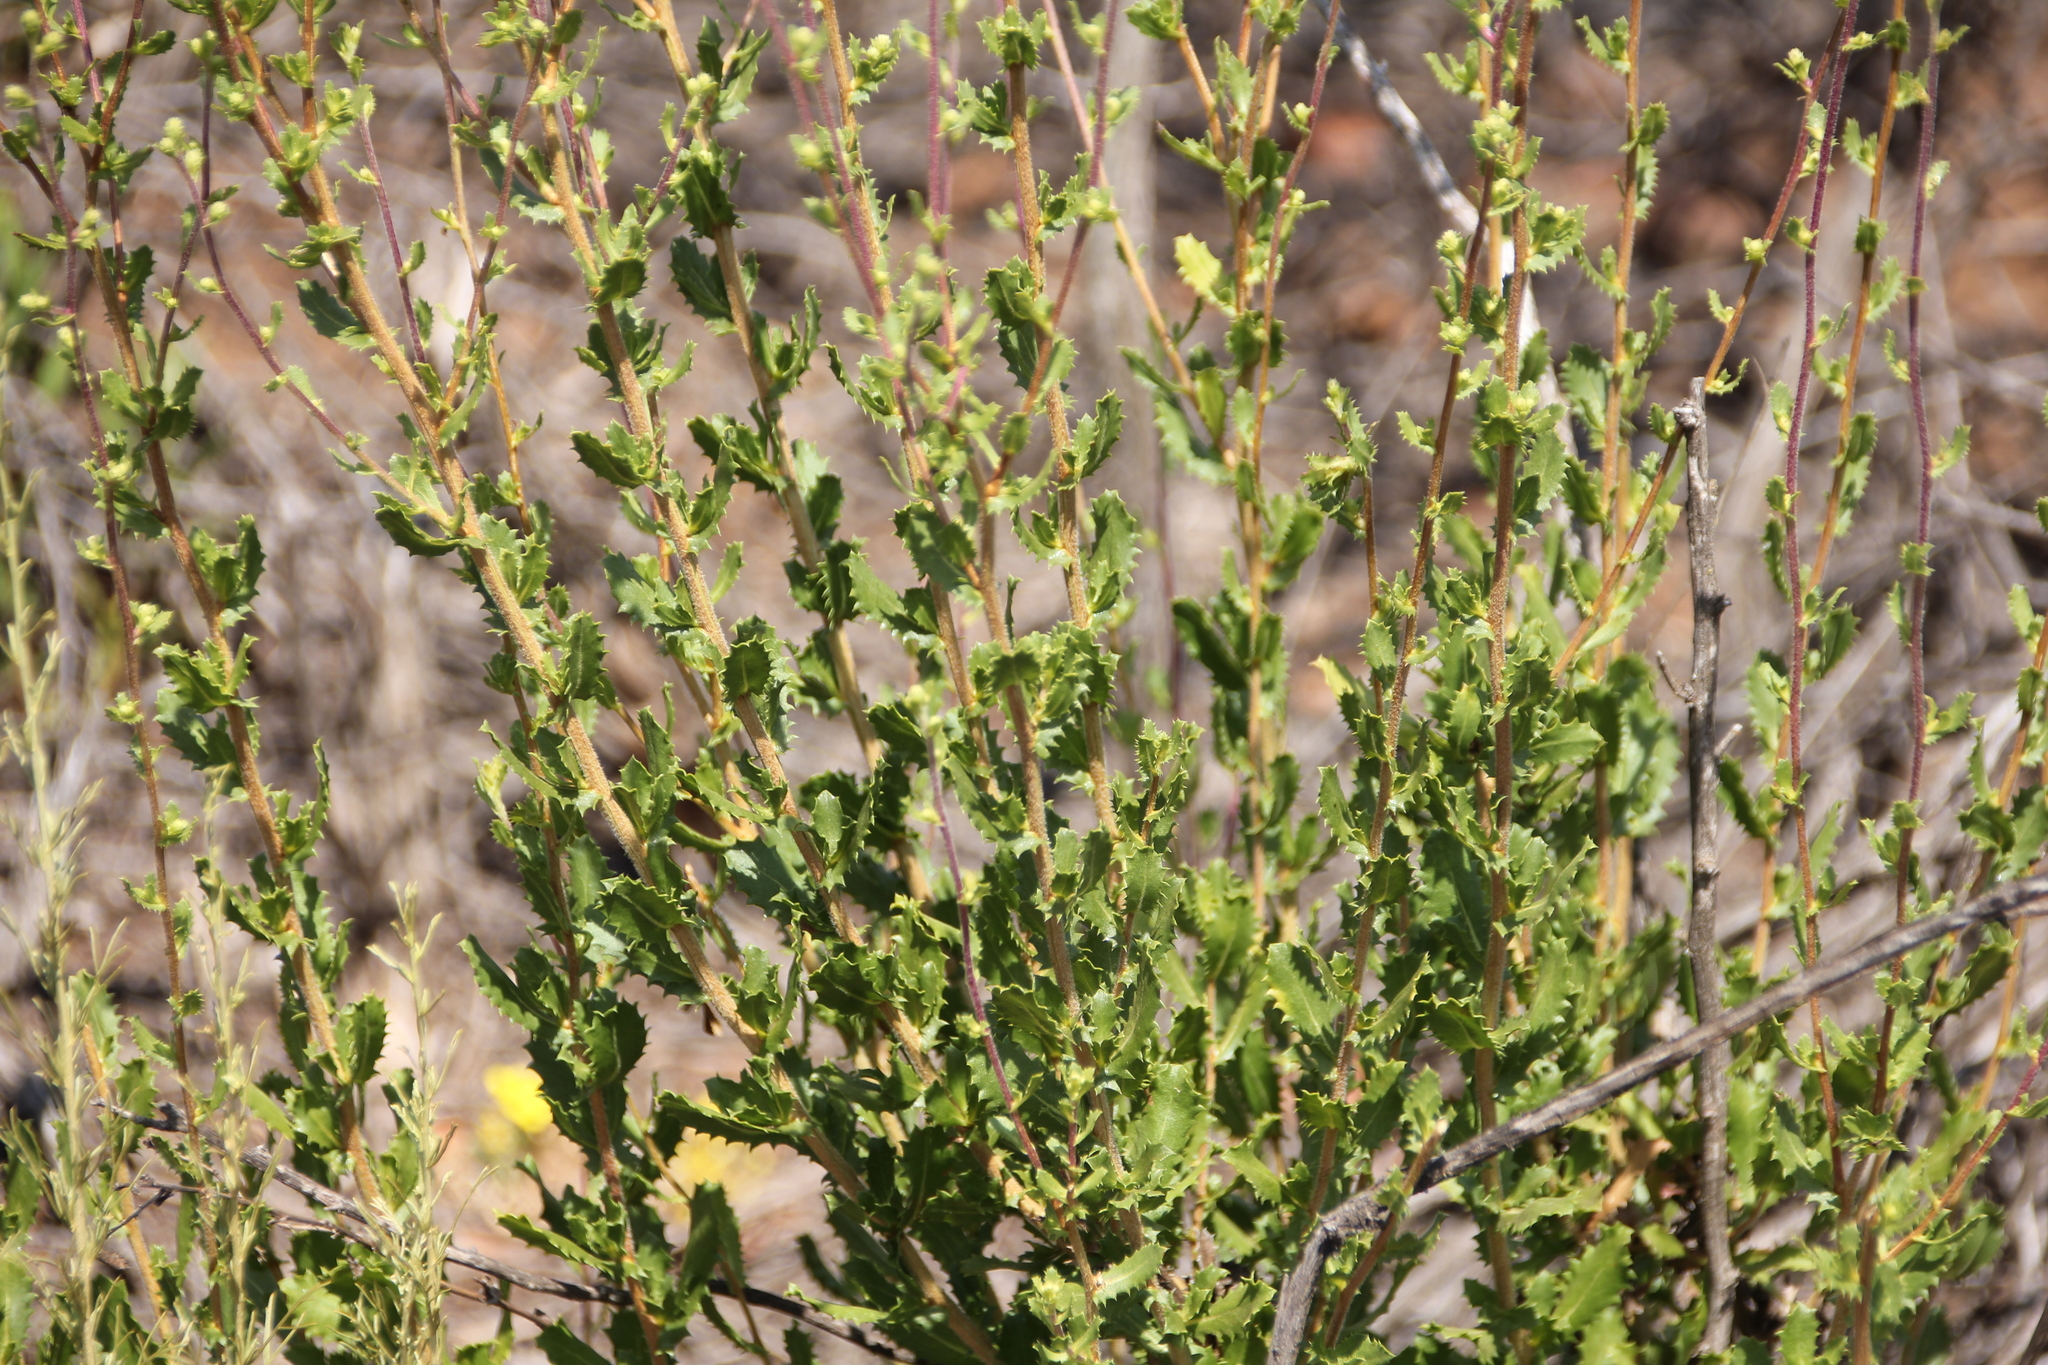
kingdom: Plantae
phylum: Tracheophyta
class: Magnoliopsida
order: Asterales
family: Asteraceae
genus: Hazardia
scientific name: Hazardia squarrosa
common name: Saw-tooth goldenbush
